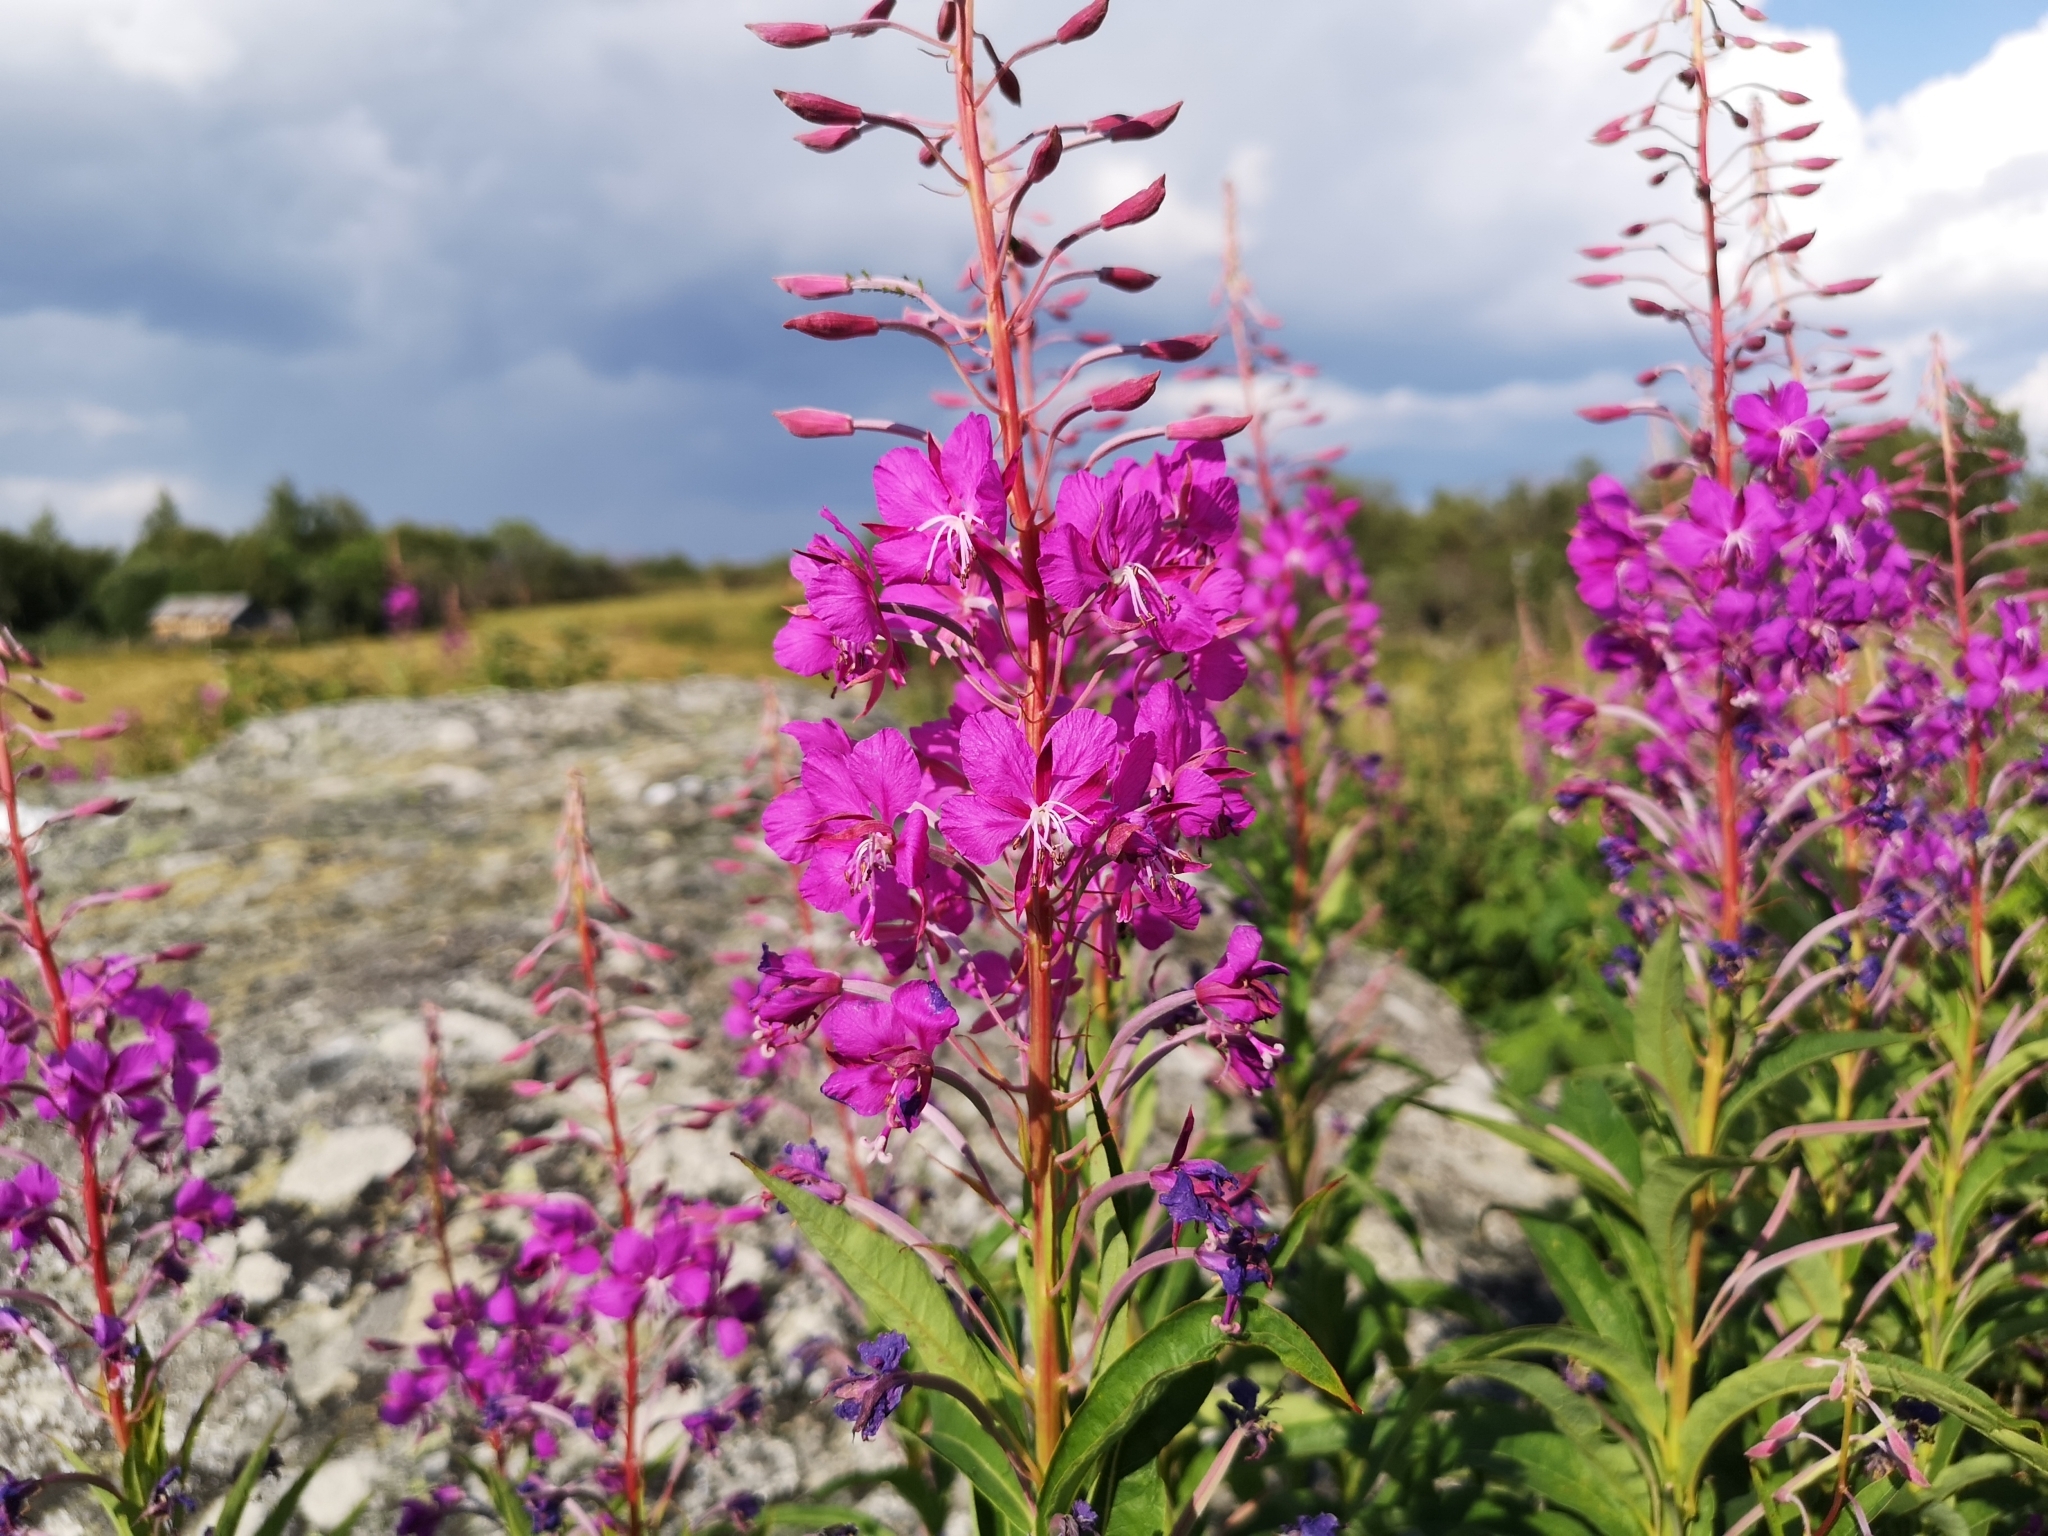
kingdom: Plantae
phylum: Tracheophyta
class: Magnoliopsida
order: Myrtales
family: Onagraceae
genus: Chamaenerion
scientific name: Chamaenerion angustifolium
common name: Fireweed
